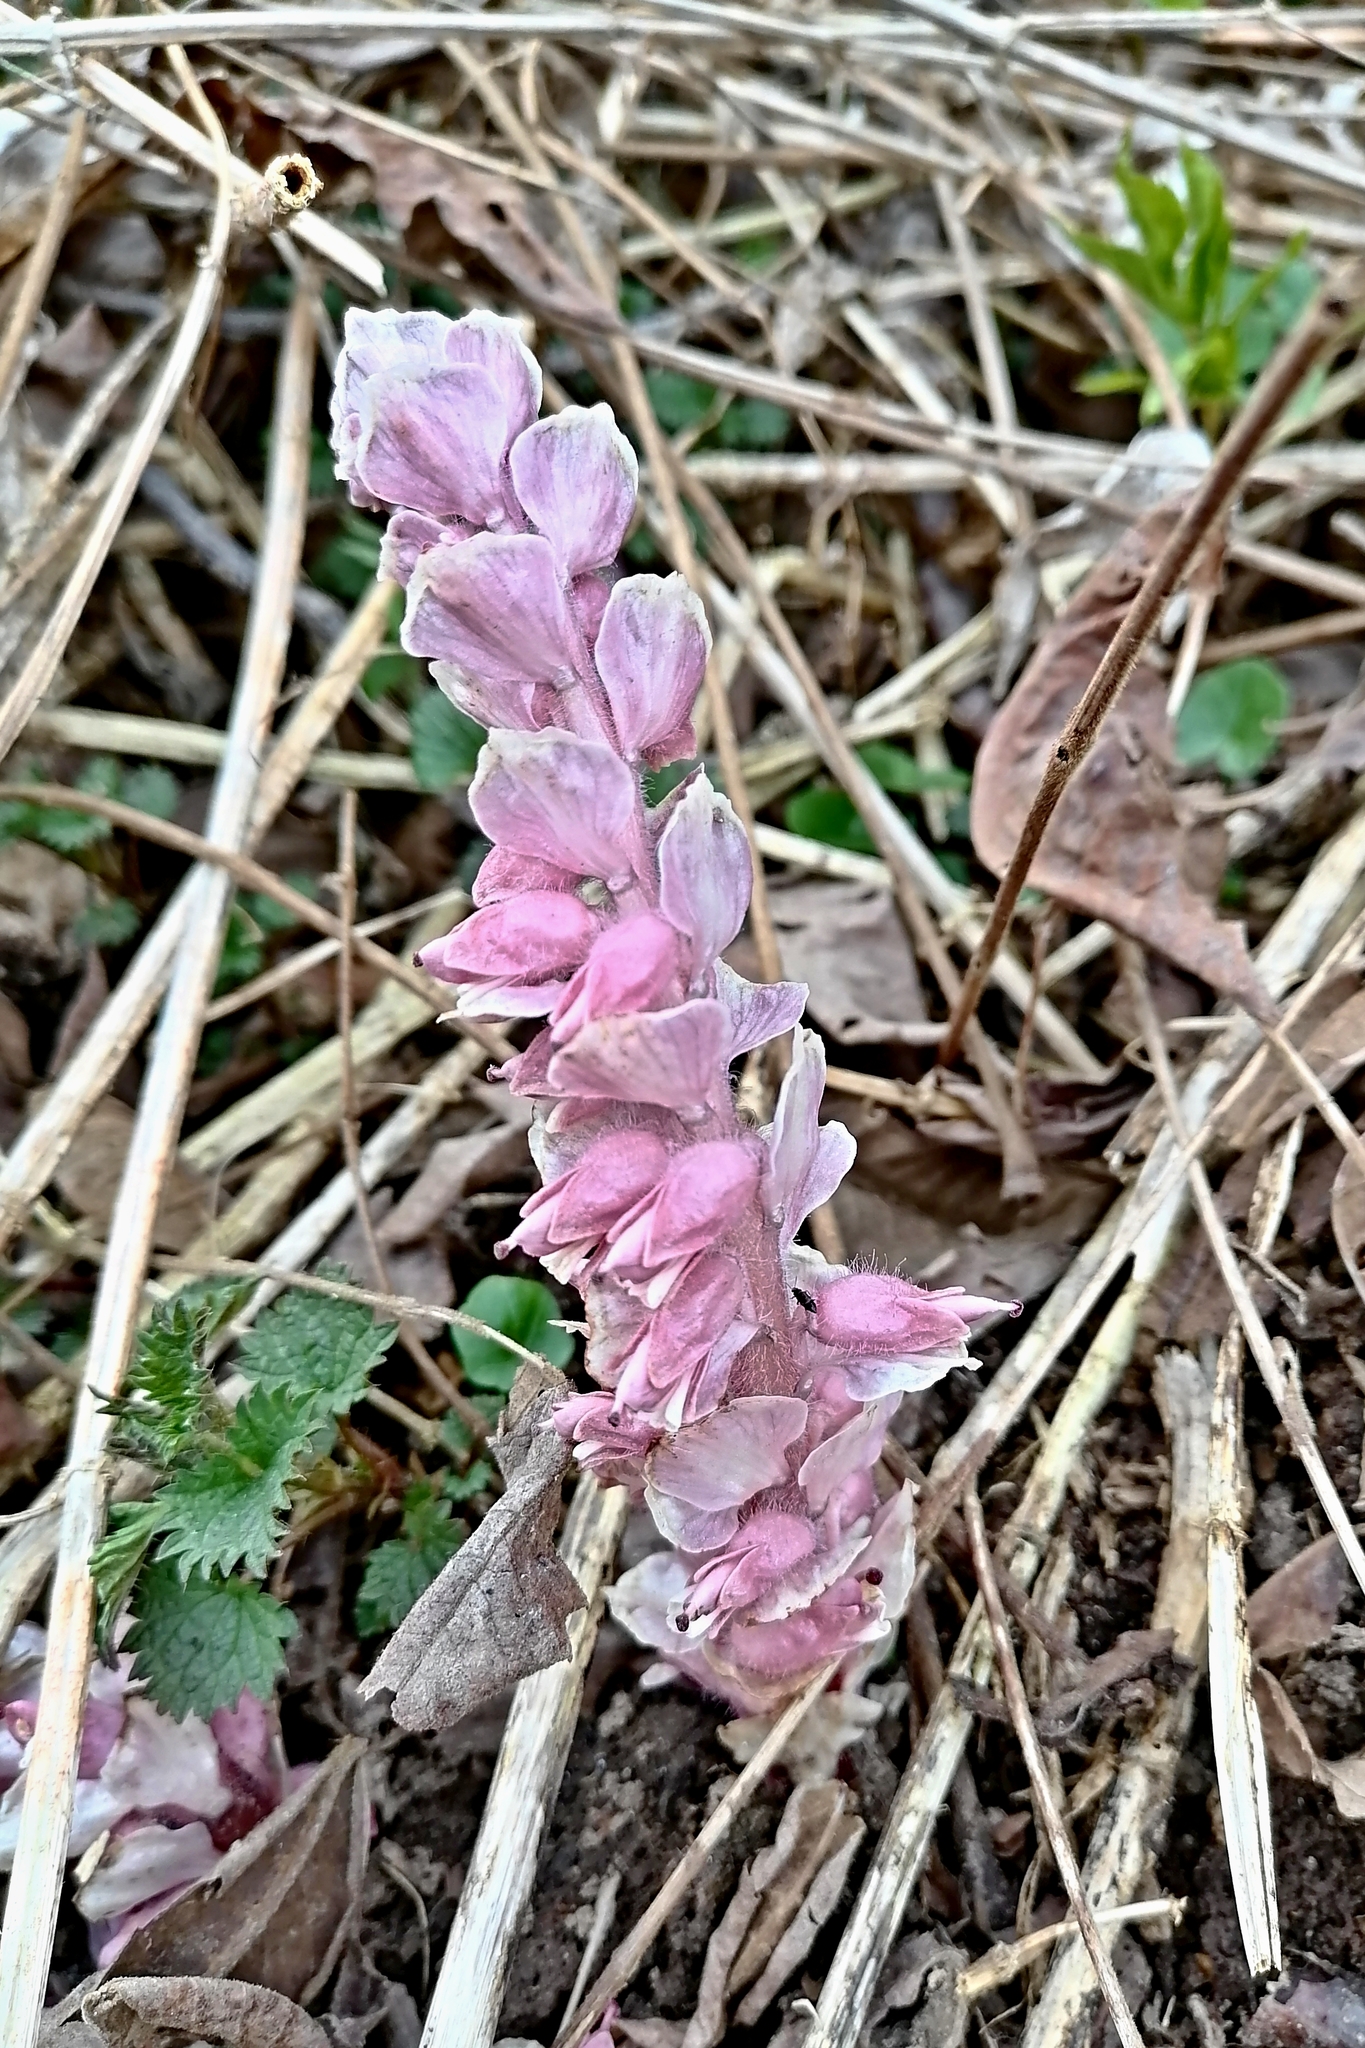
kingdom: Plantae
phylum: Tracheophyta
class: Magnoliopsida
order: Lamiales
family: Orobanchaceae
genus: Lathraea
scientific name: Lathraea squamaria
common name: Toothwort
